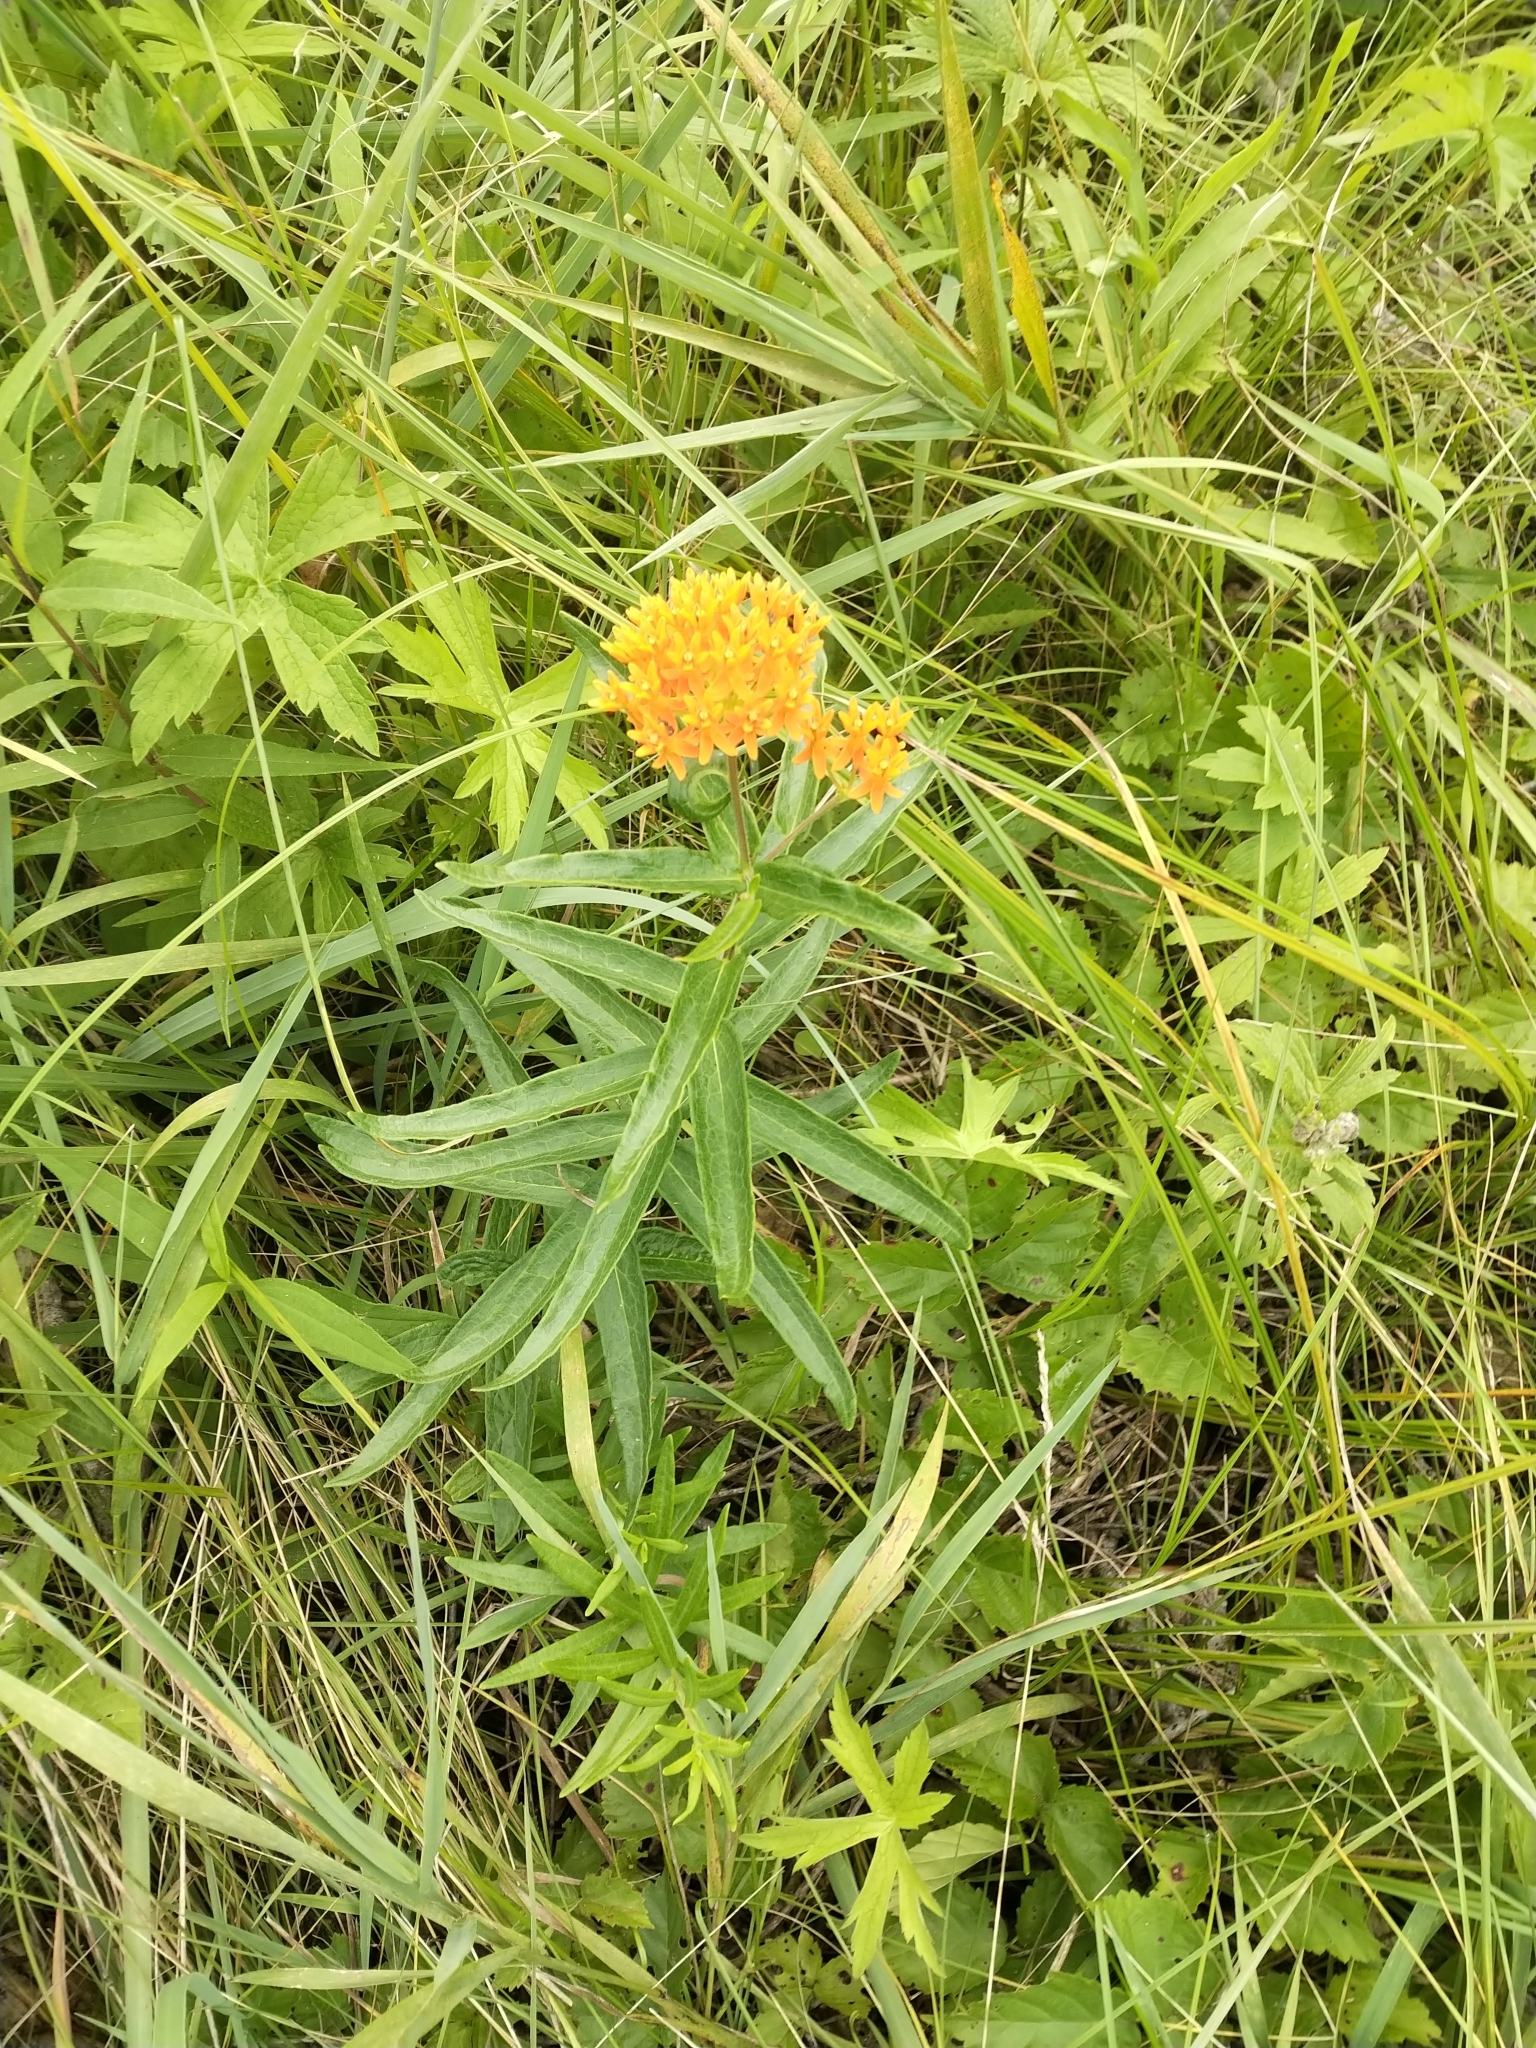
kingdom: Plantae
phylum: Tracheophyta
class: Magnoliopsida
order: Gentianales
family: Apocynaceae
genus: Asclepias
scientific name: Asclepias tuberosa
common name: Butterfly milkweed
